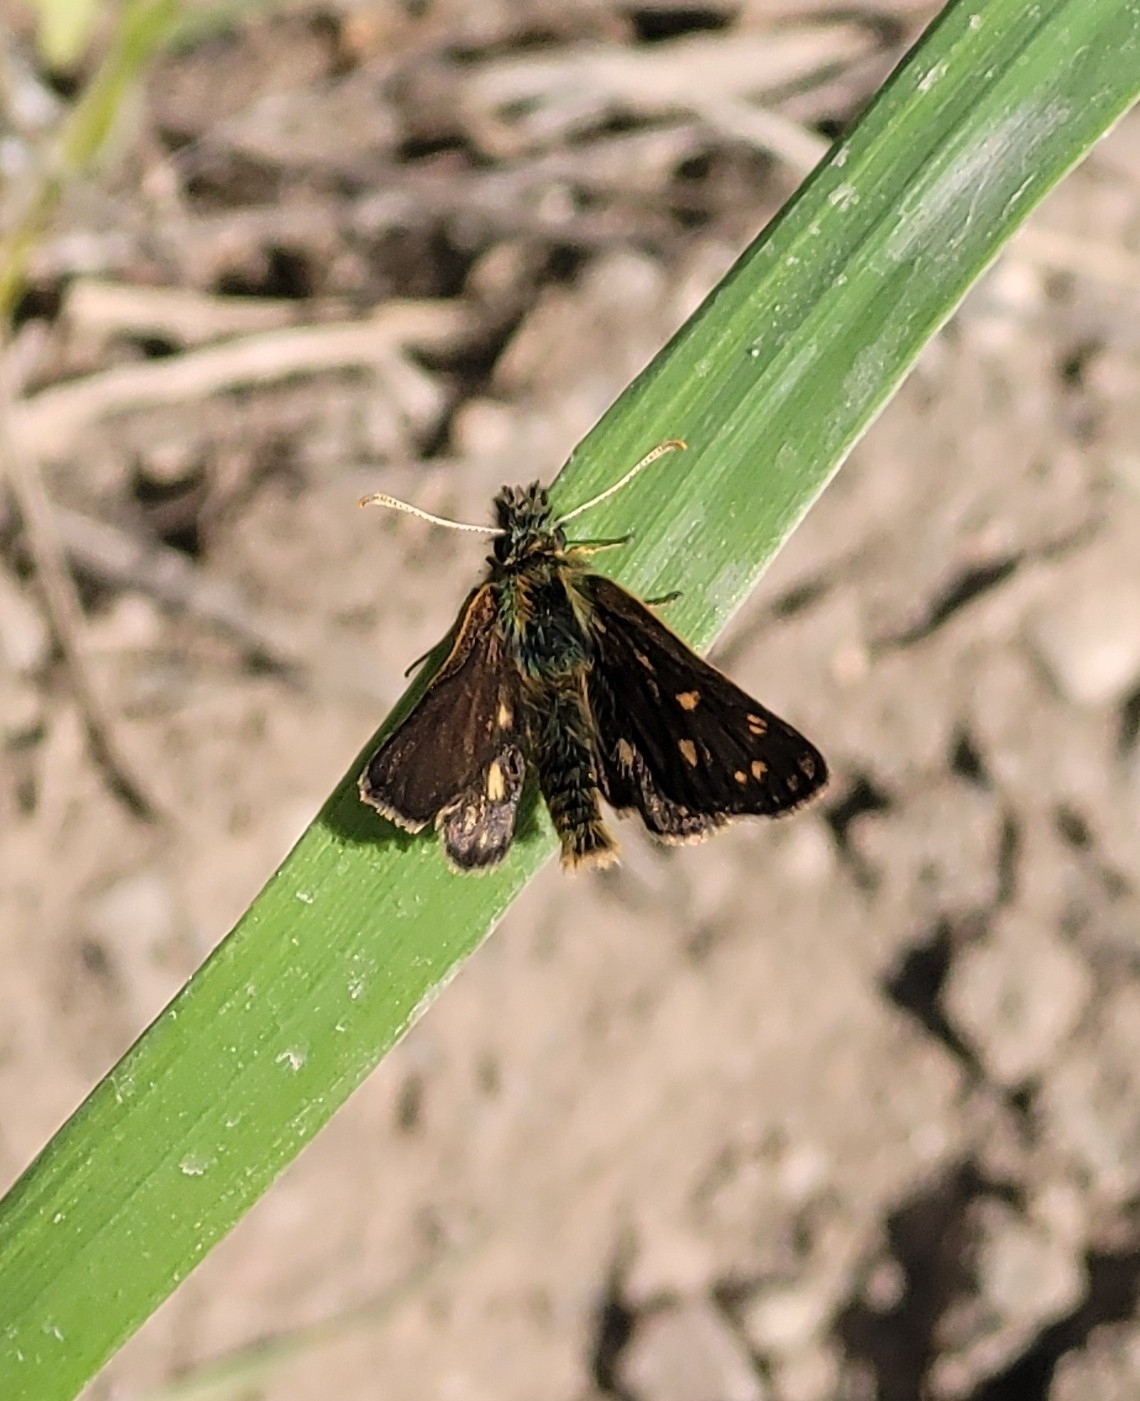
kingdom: Animalia
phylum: Arthropoda
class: Insecta
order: Lepidoptera
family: Hesperiidae
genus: Carterocephalus
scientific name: Carterocephalus palaemon
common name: Chequered skipper
